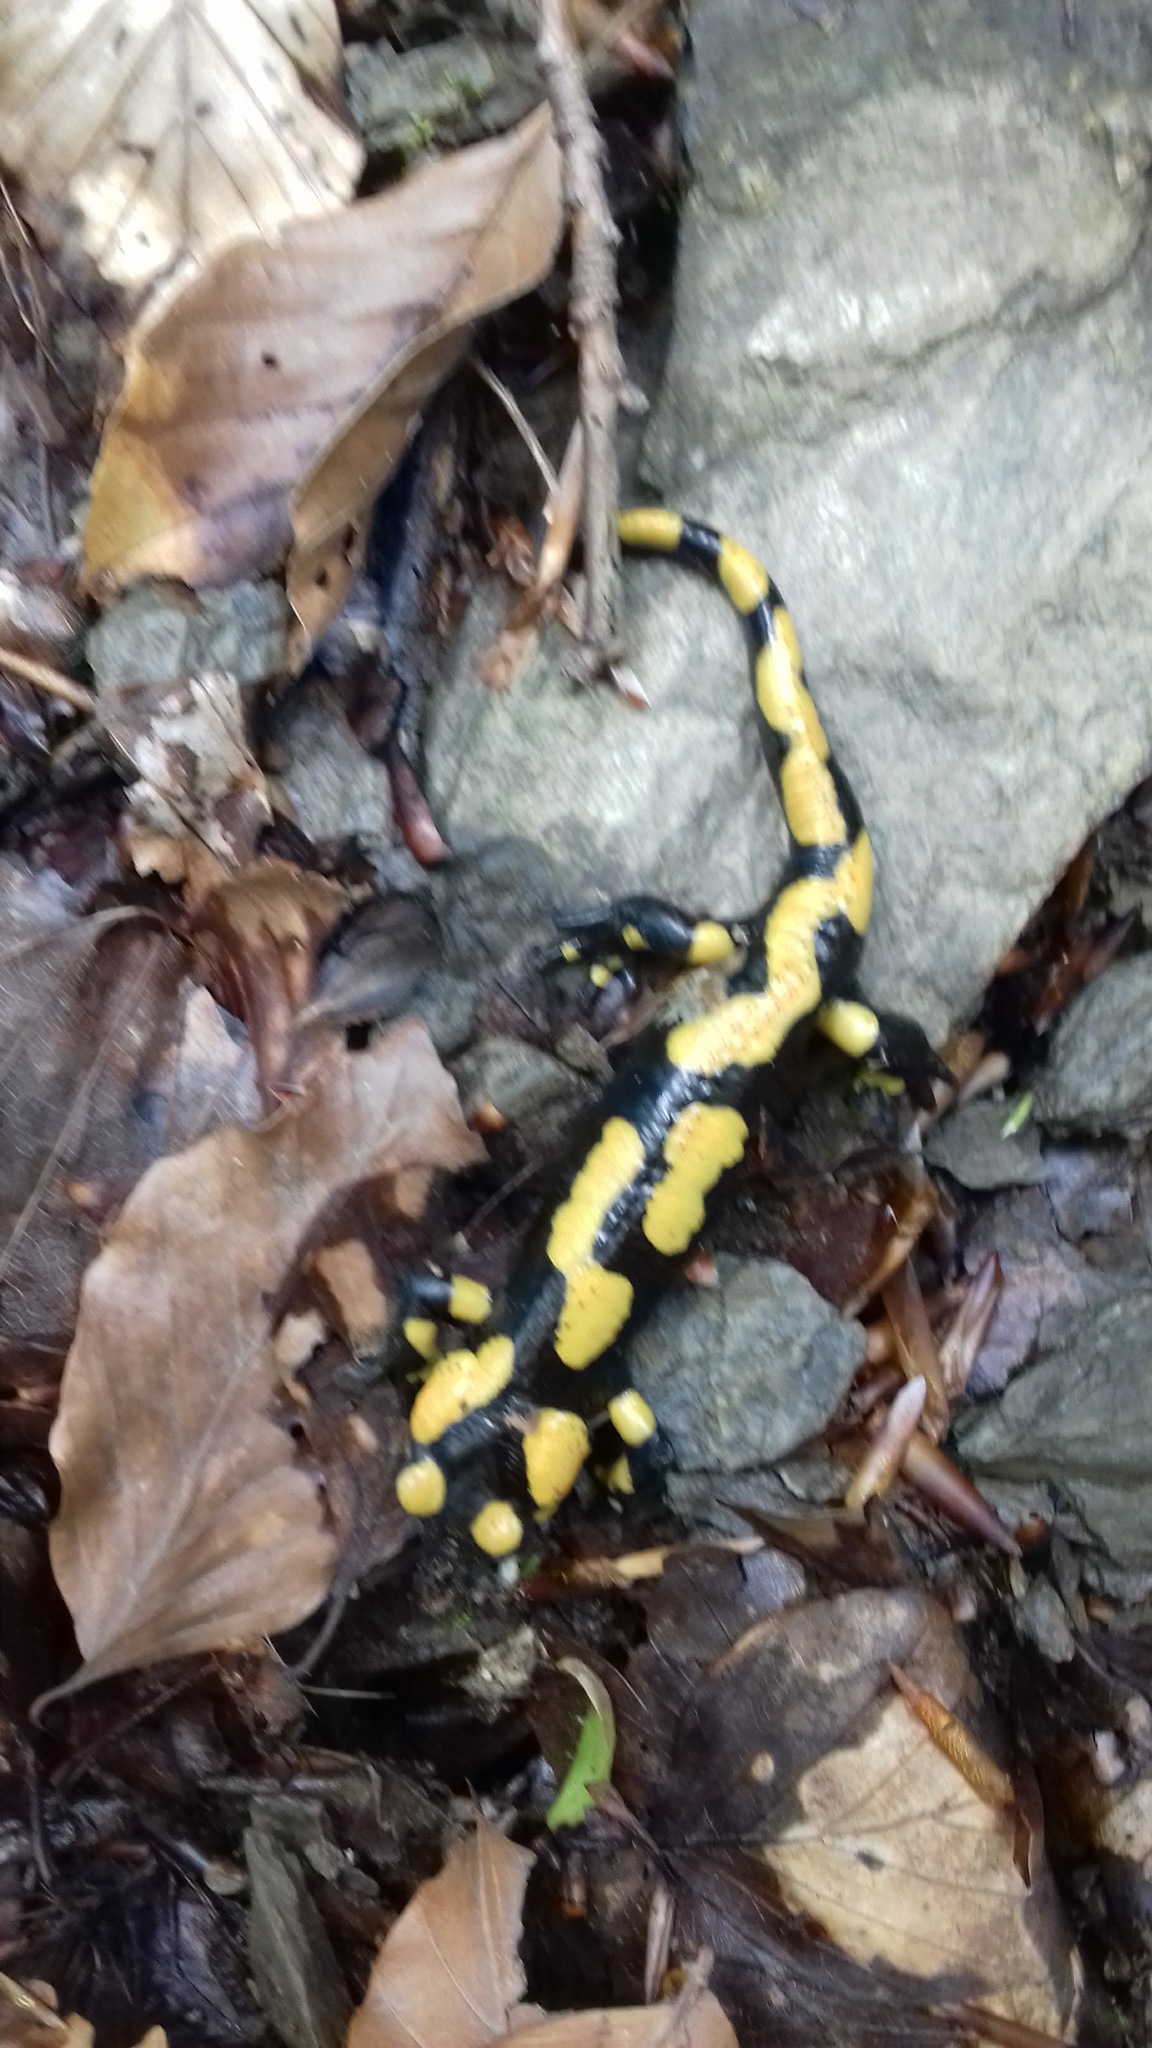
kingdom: Animalia
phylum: Chordata
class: Amphibia
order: Caudata
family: Salamandridae
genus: Salamandra
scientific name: Salamandra salamandra
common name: Fire salamander
